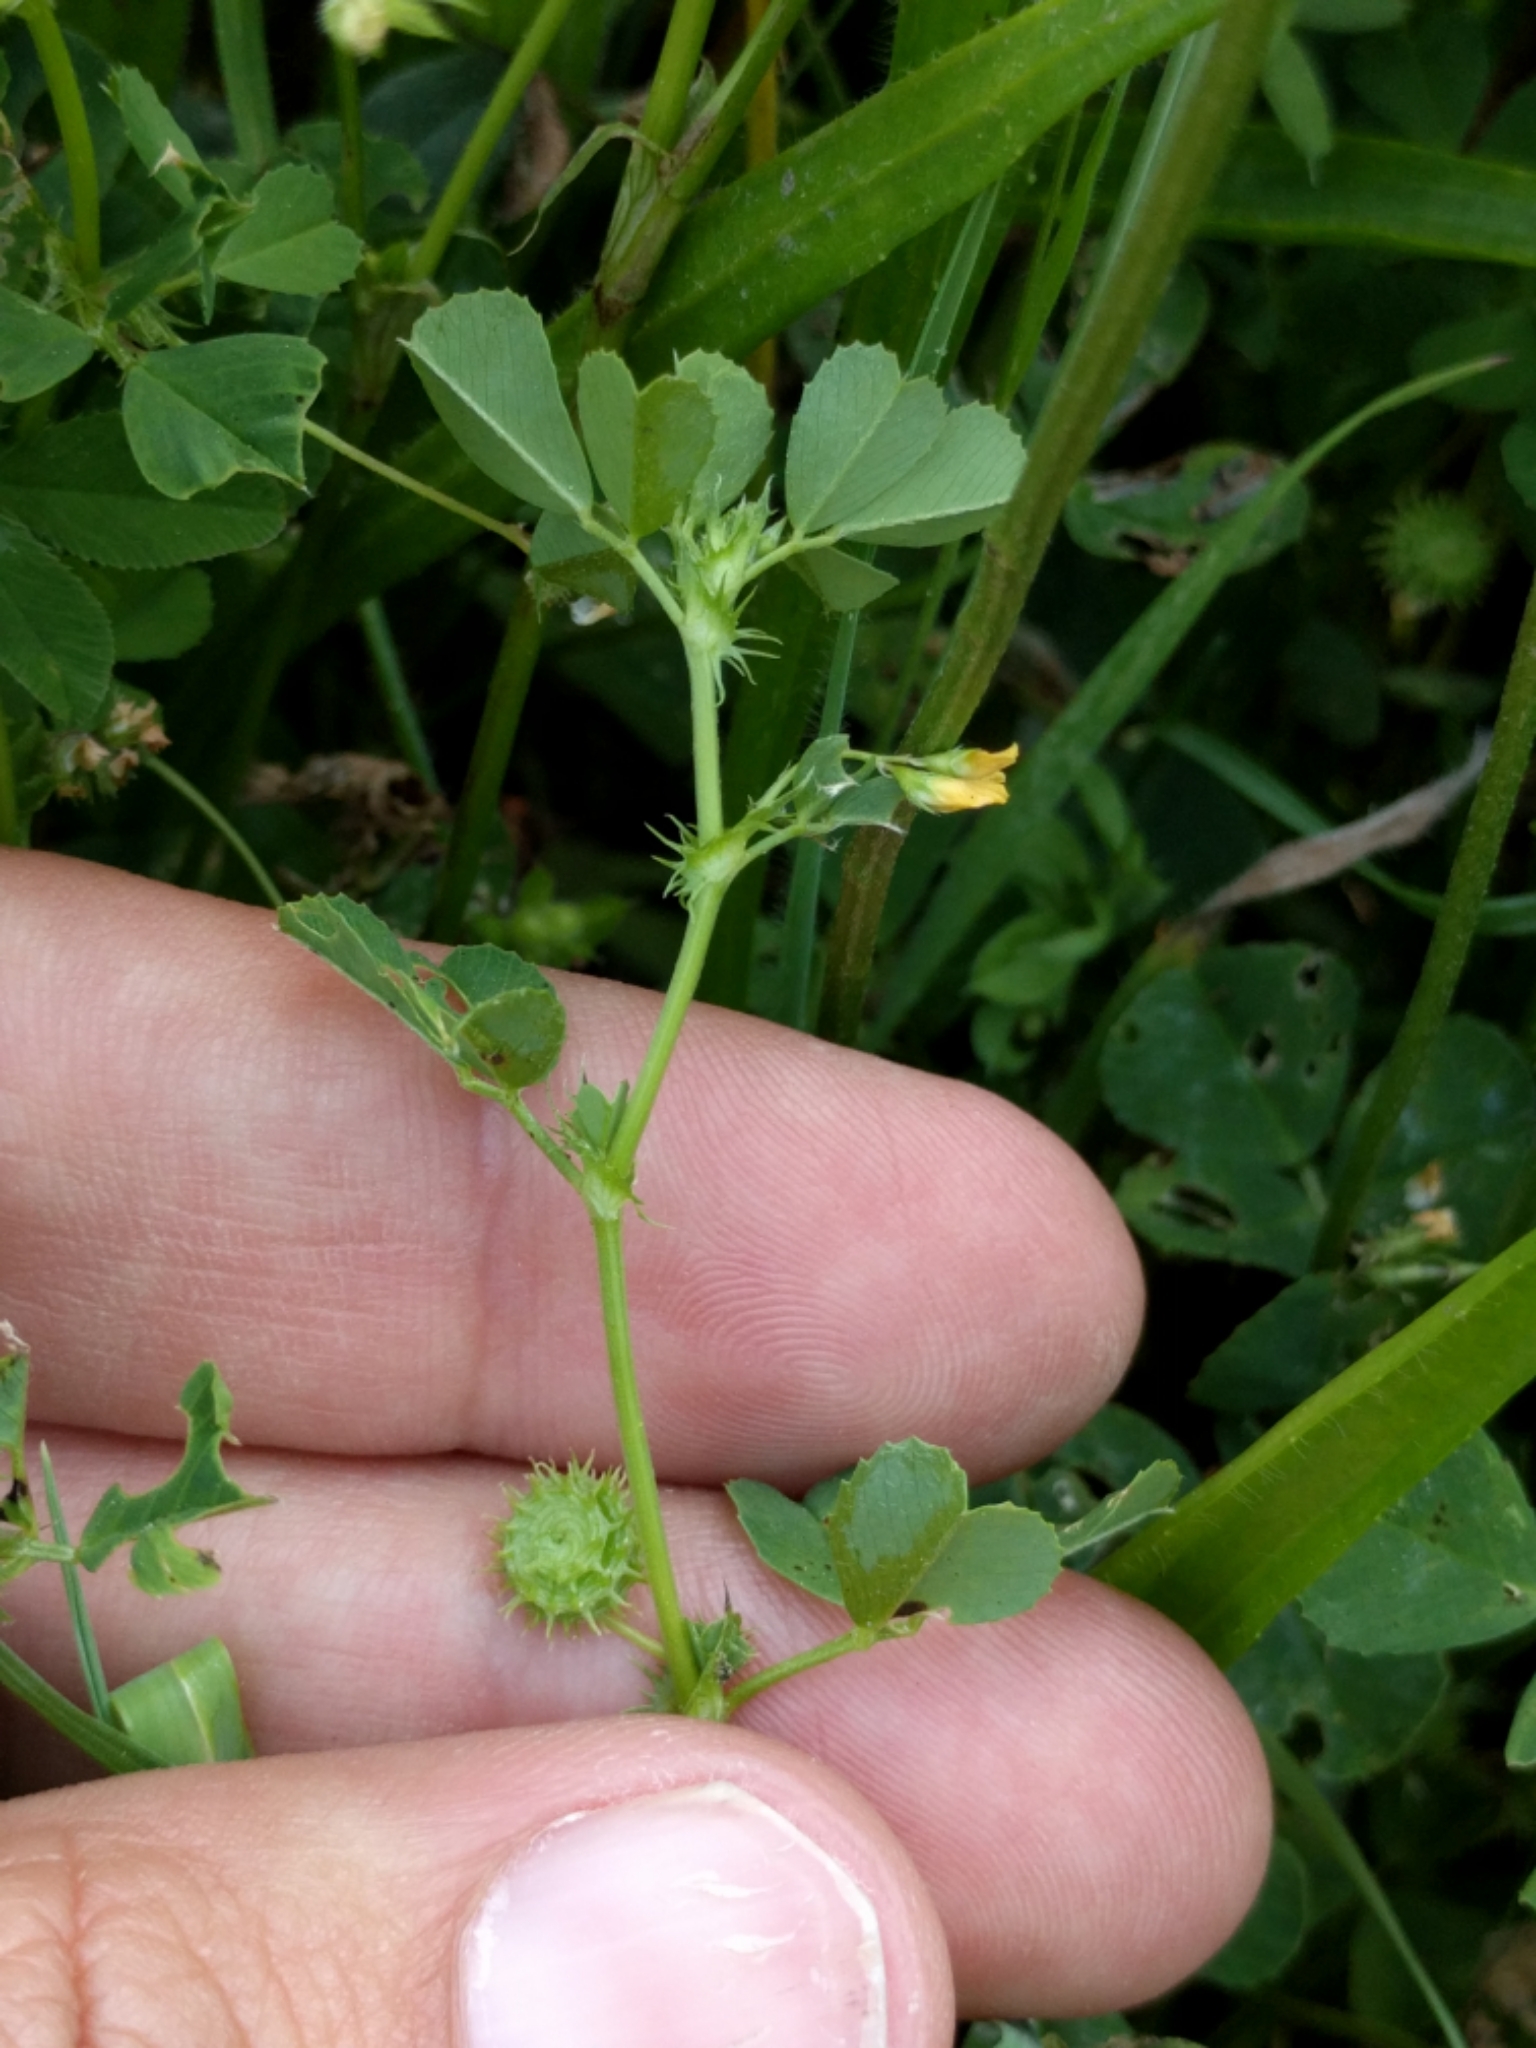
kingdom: Plantae
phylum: Tracheophyta
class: Magnoliopsida
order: Fabales
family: Fabaceae
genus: Medicago
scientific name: Medicago polymorpha
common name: Burclover
